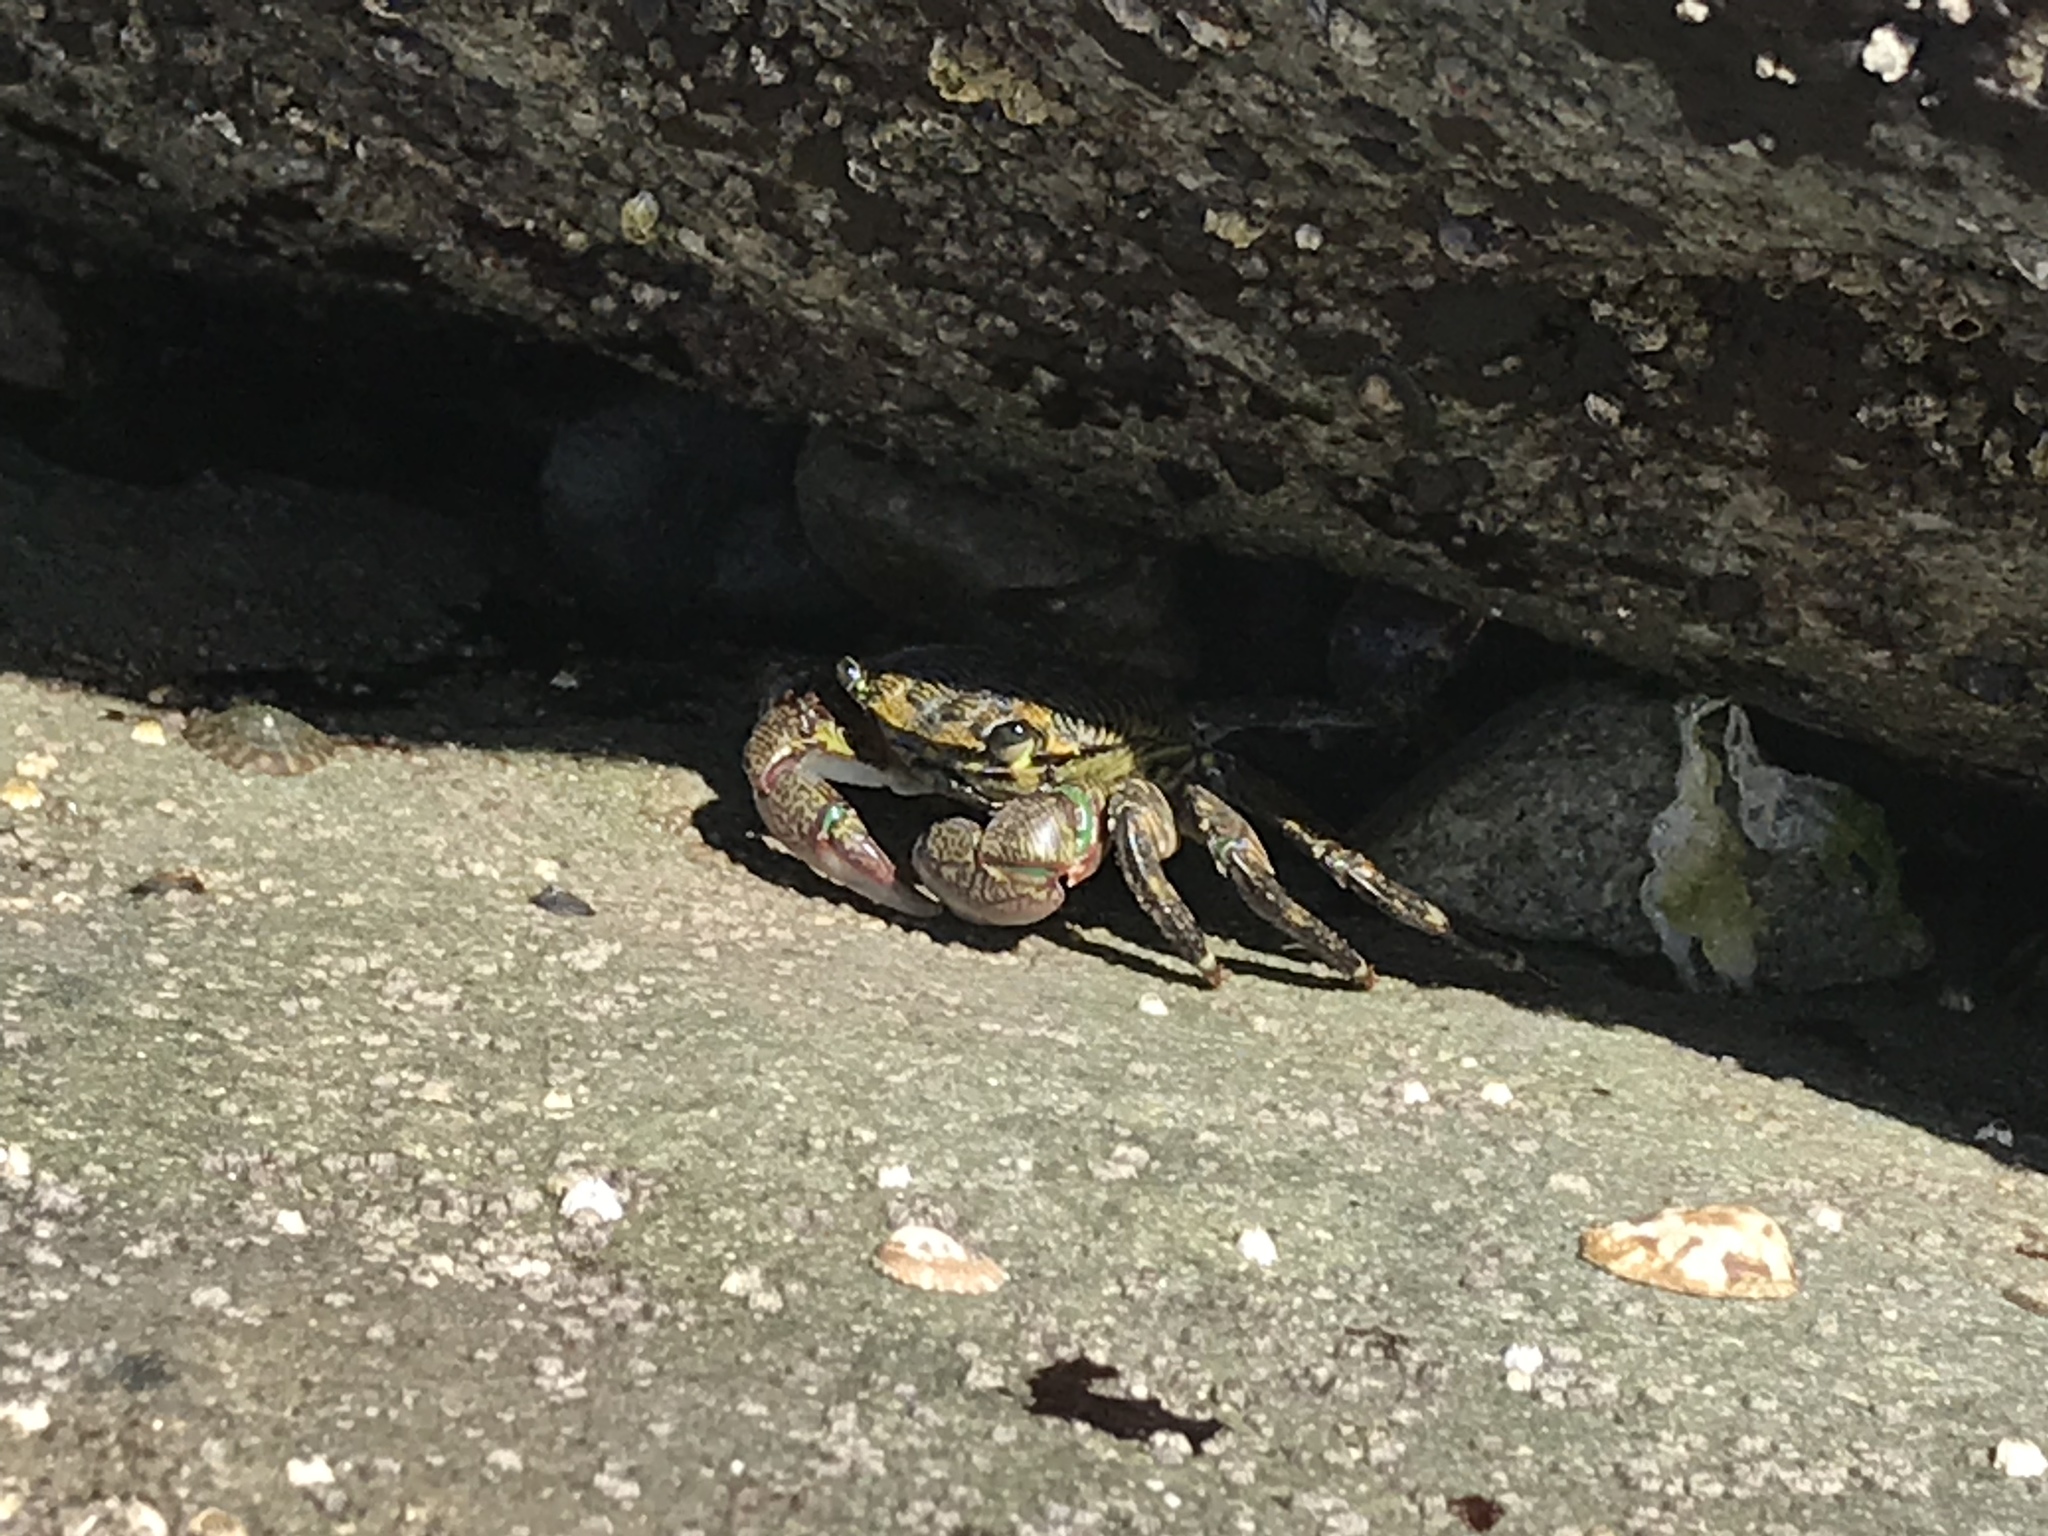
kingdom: Animalia
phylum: Arthropoda
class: Malacostraca
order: Decapoda
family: Grapsidae
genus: Pachygrapsus
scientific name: Pachygrapsus crassipes
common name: Striped shore crab
